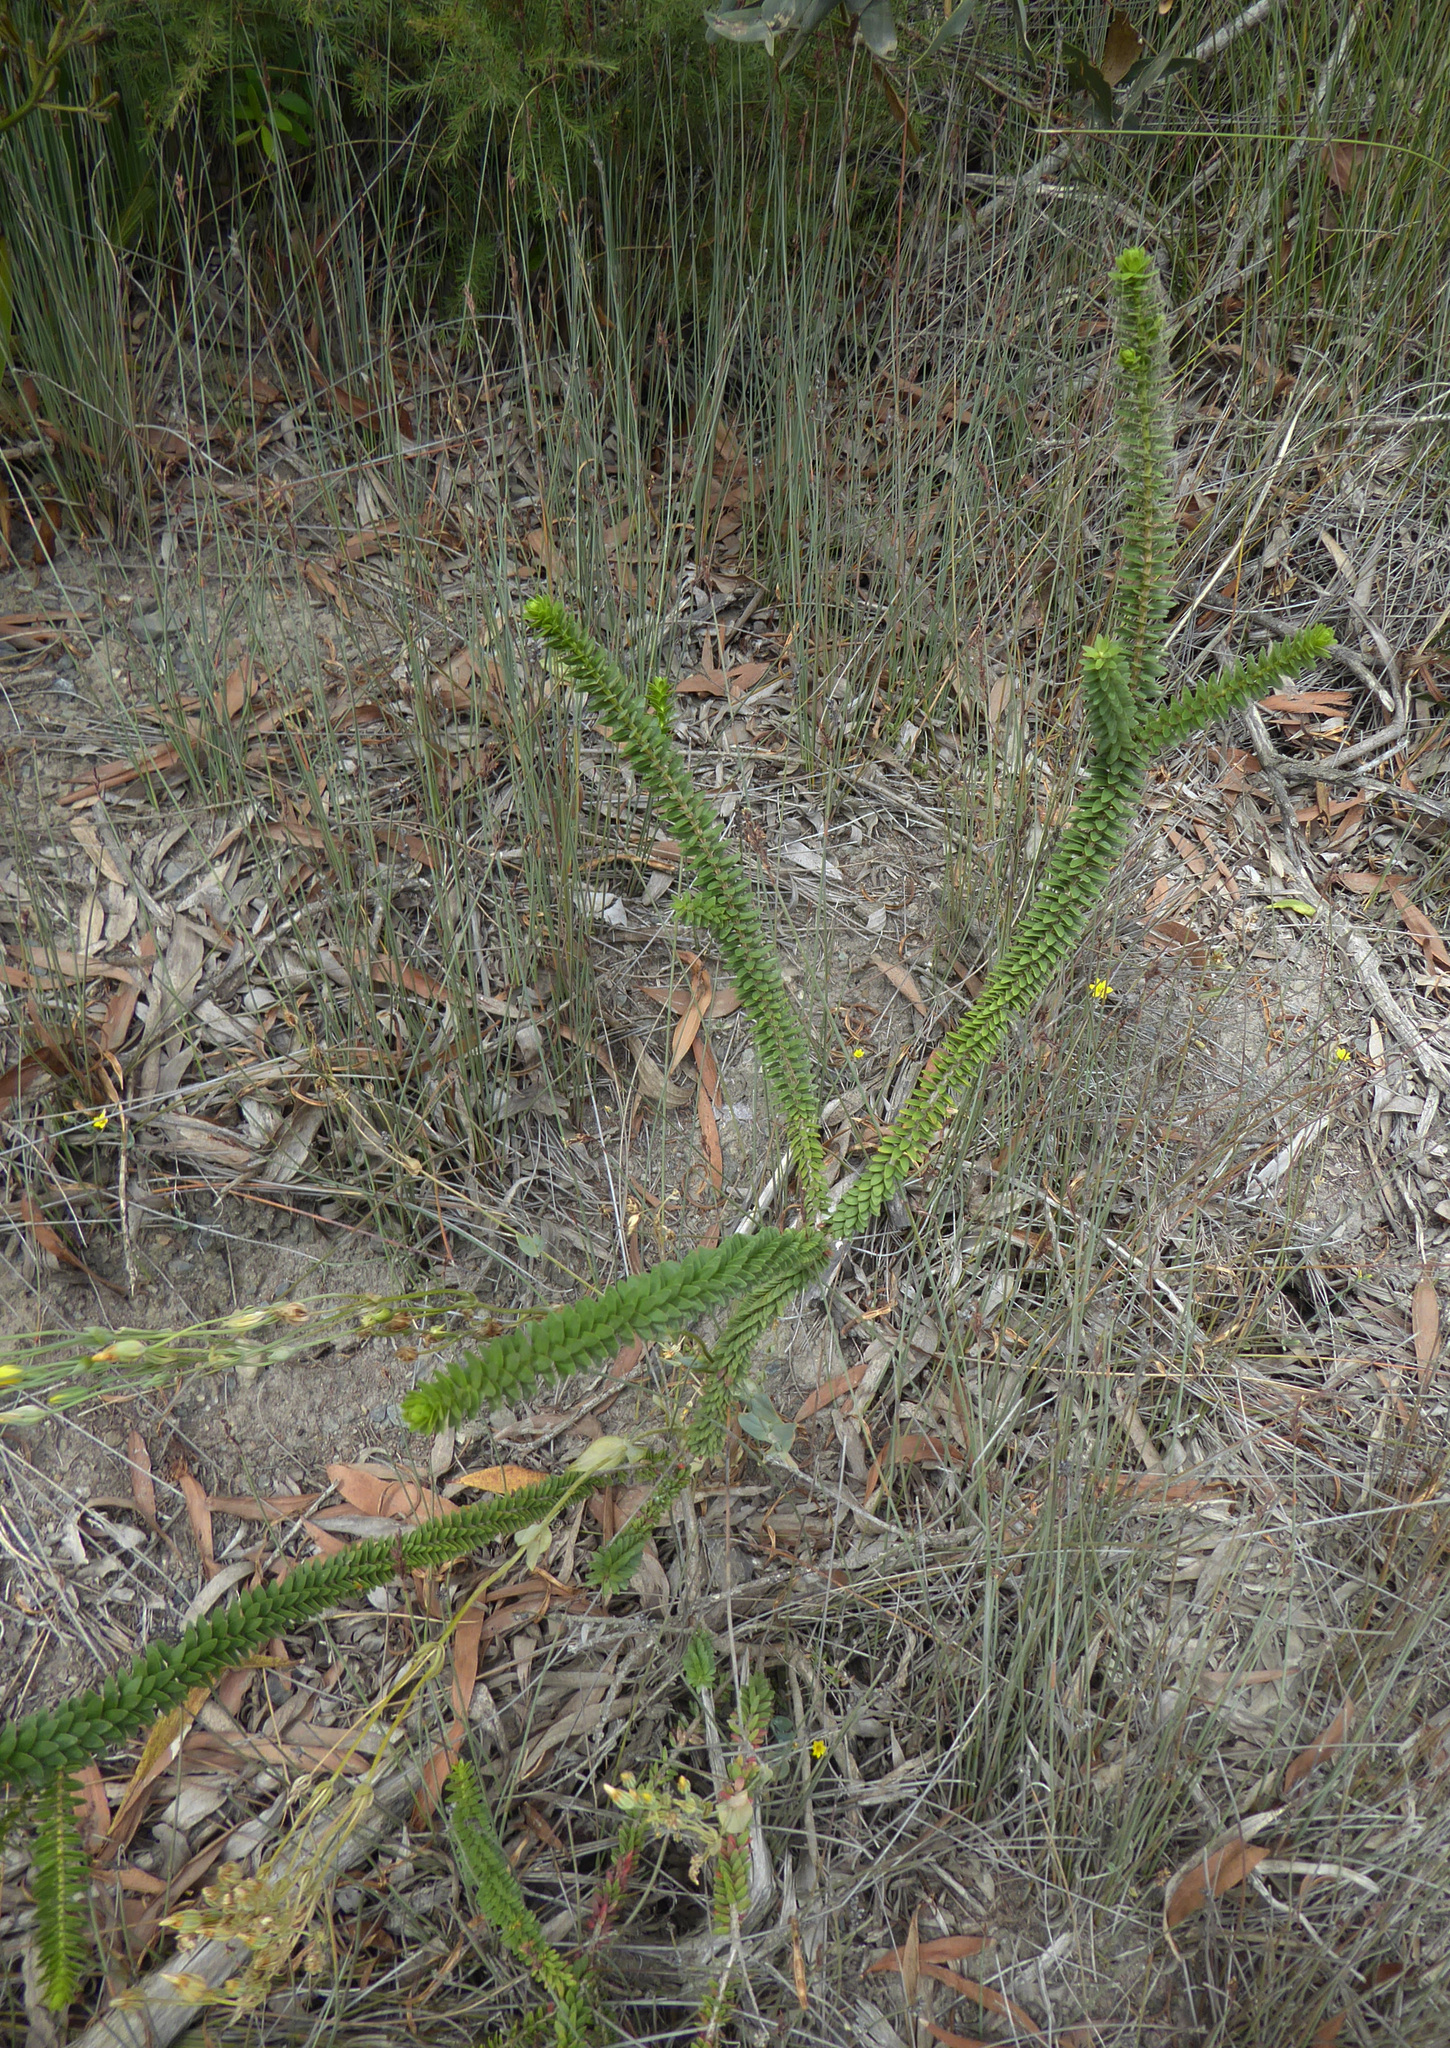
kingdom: Plantae
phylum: Tracheophyta
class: Magnoliopsida
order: Myrtales
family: Myrtaceae
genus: Melaleuca
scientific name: Melaleuca diosmifolia
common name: Green honey myrtle
